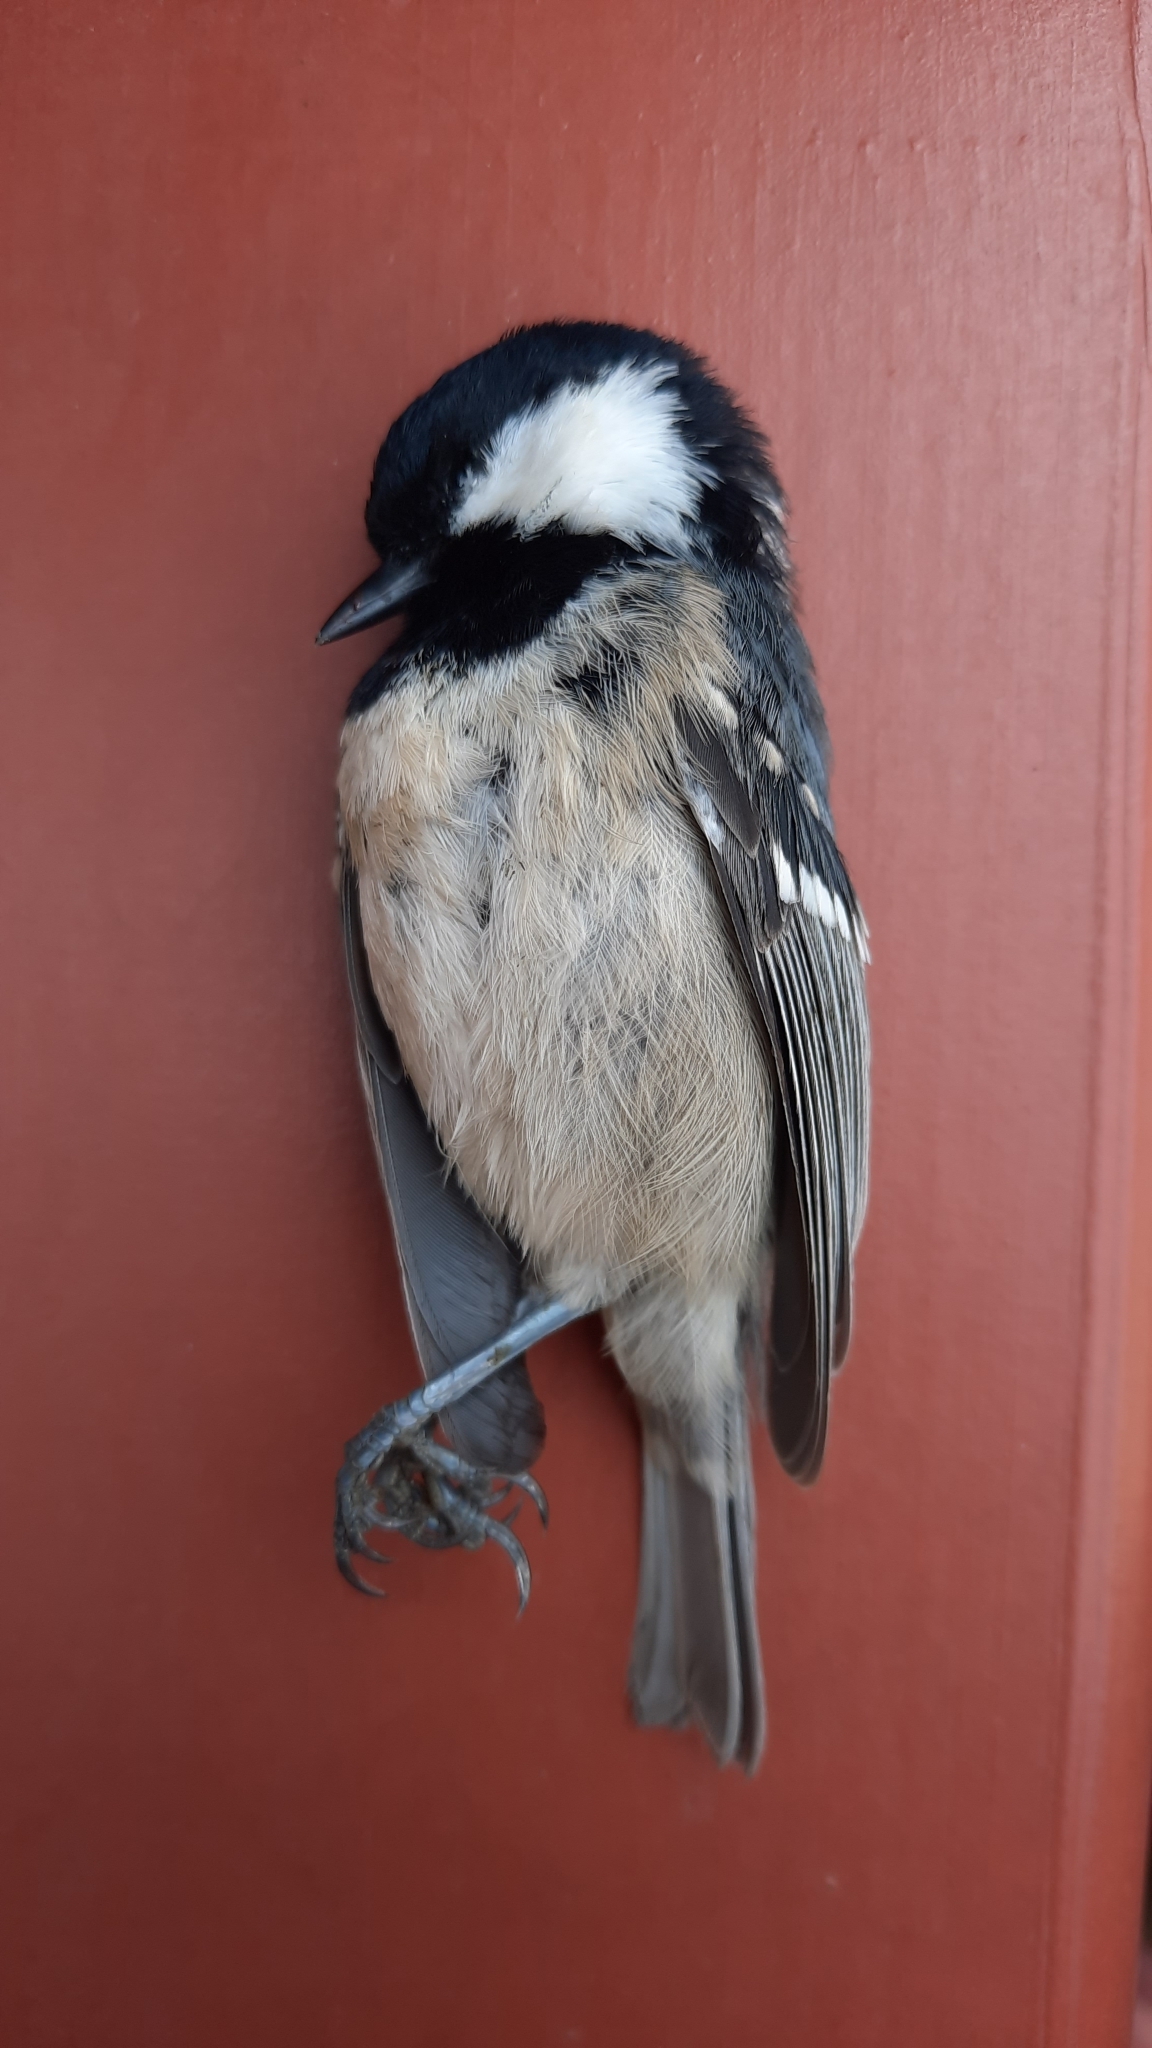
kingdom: Animalia
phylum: Chordata
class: Aves
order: Passeriformes
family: Paridae
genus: Periparus
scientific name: Periparus ater
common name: Coal tit
